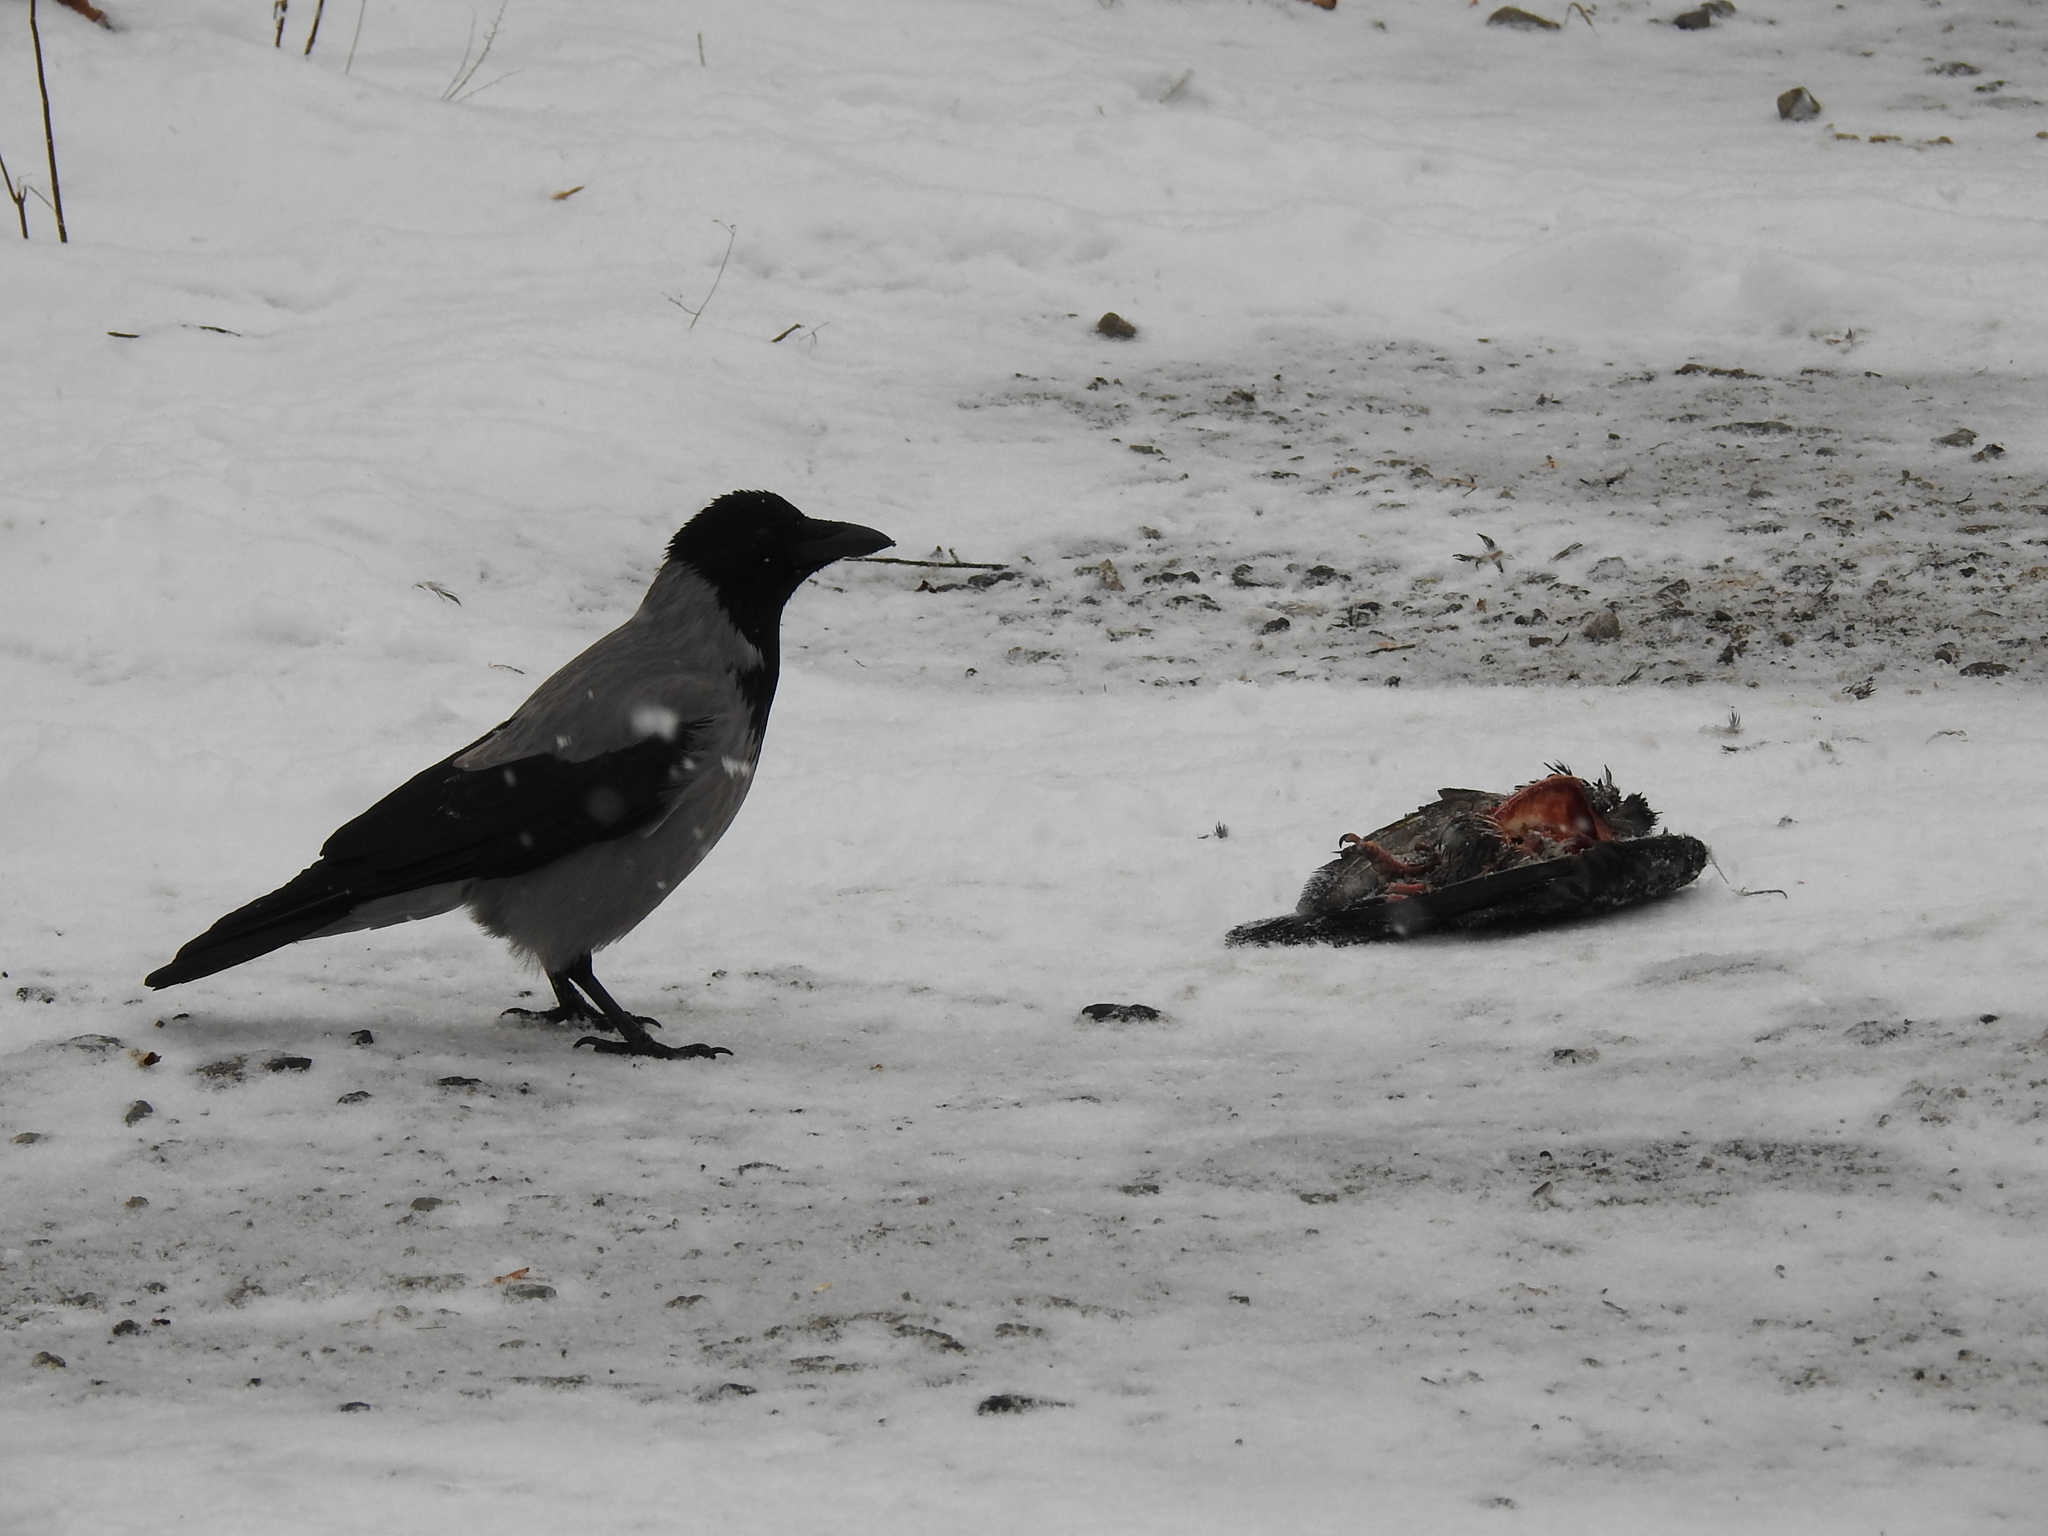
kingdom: Animalia
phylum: Chordata
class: Aves
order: Passeriformes
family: Corvidae
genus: Corvus
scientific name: Corvus cornix
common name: Hooded crow
